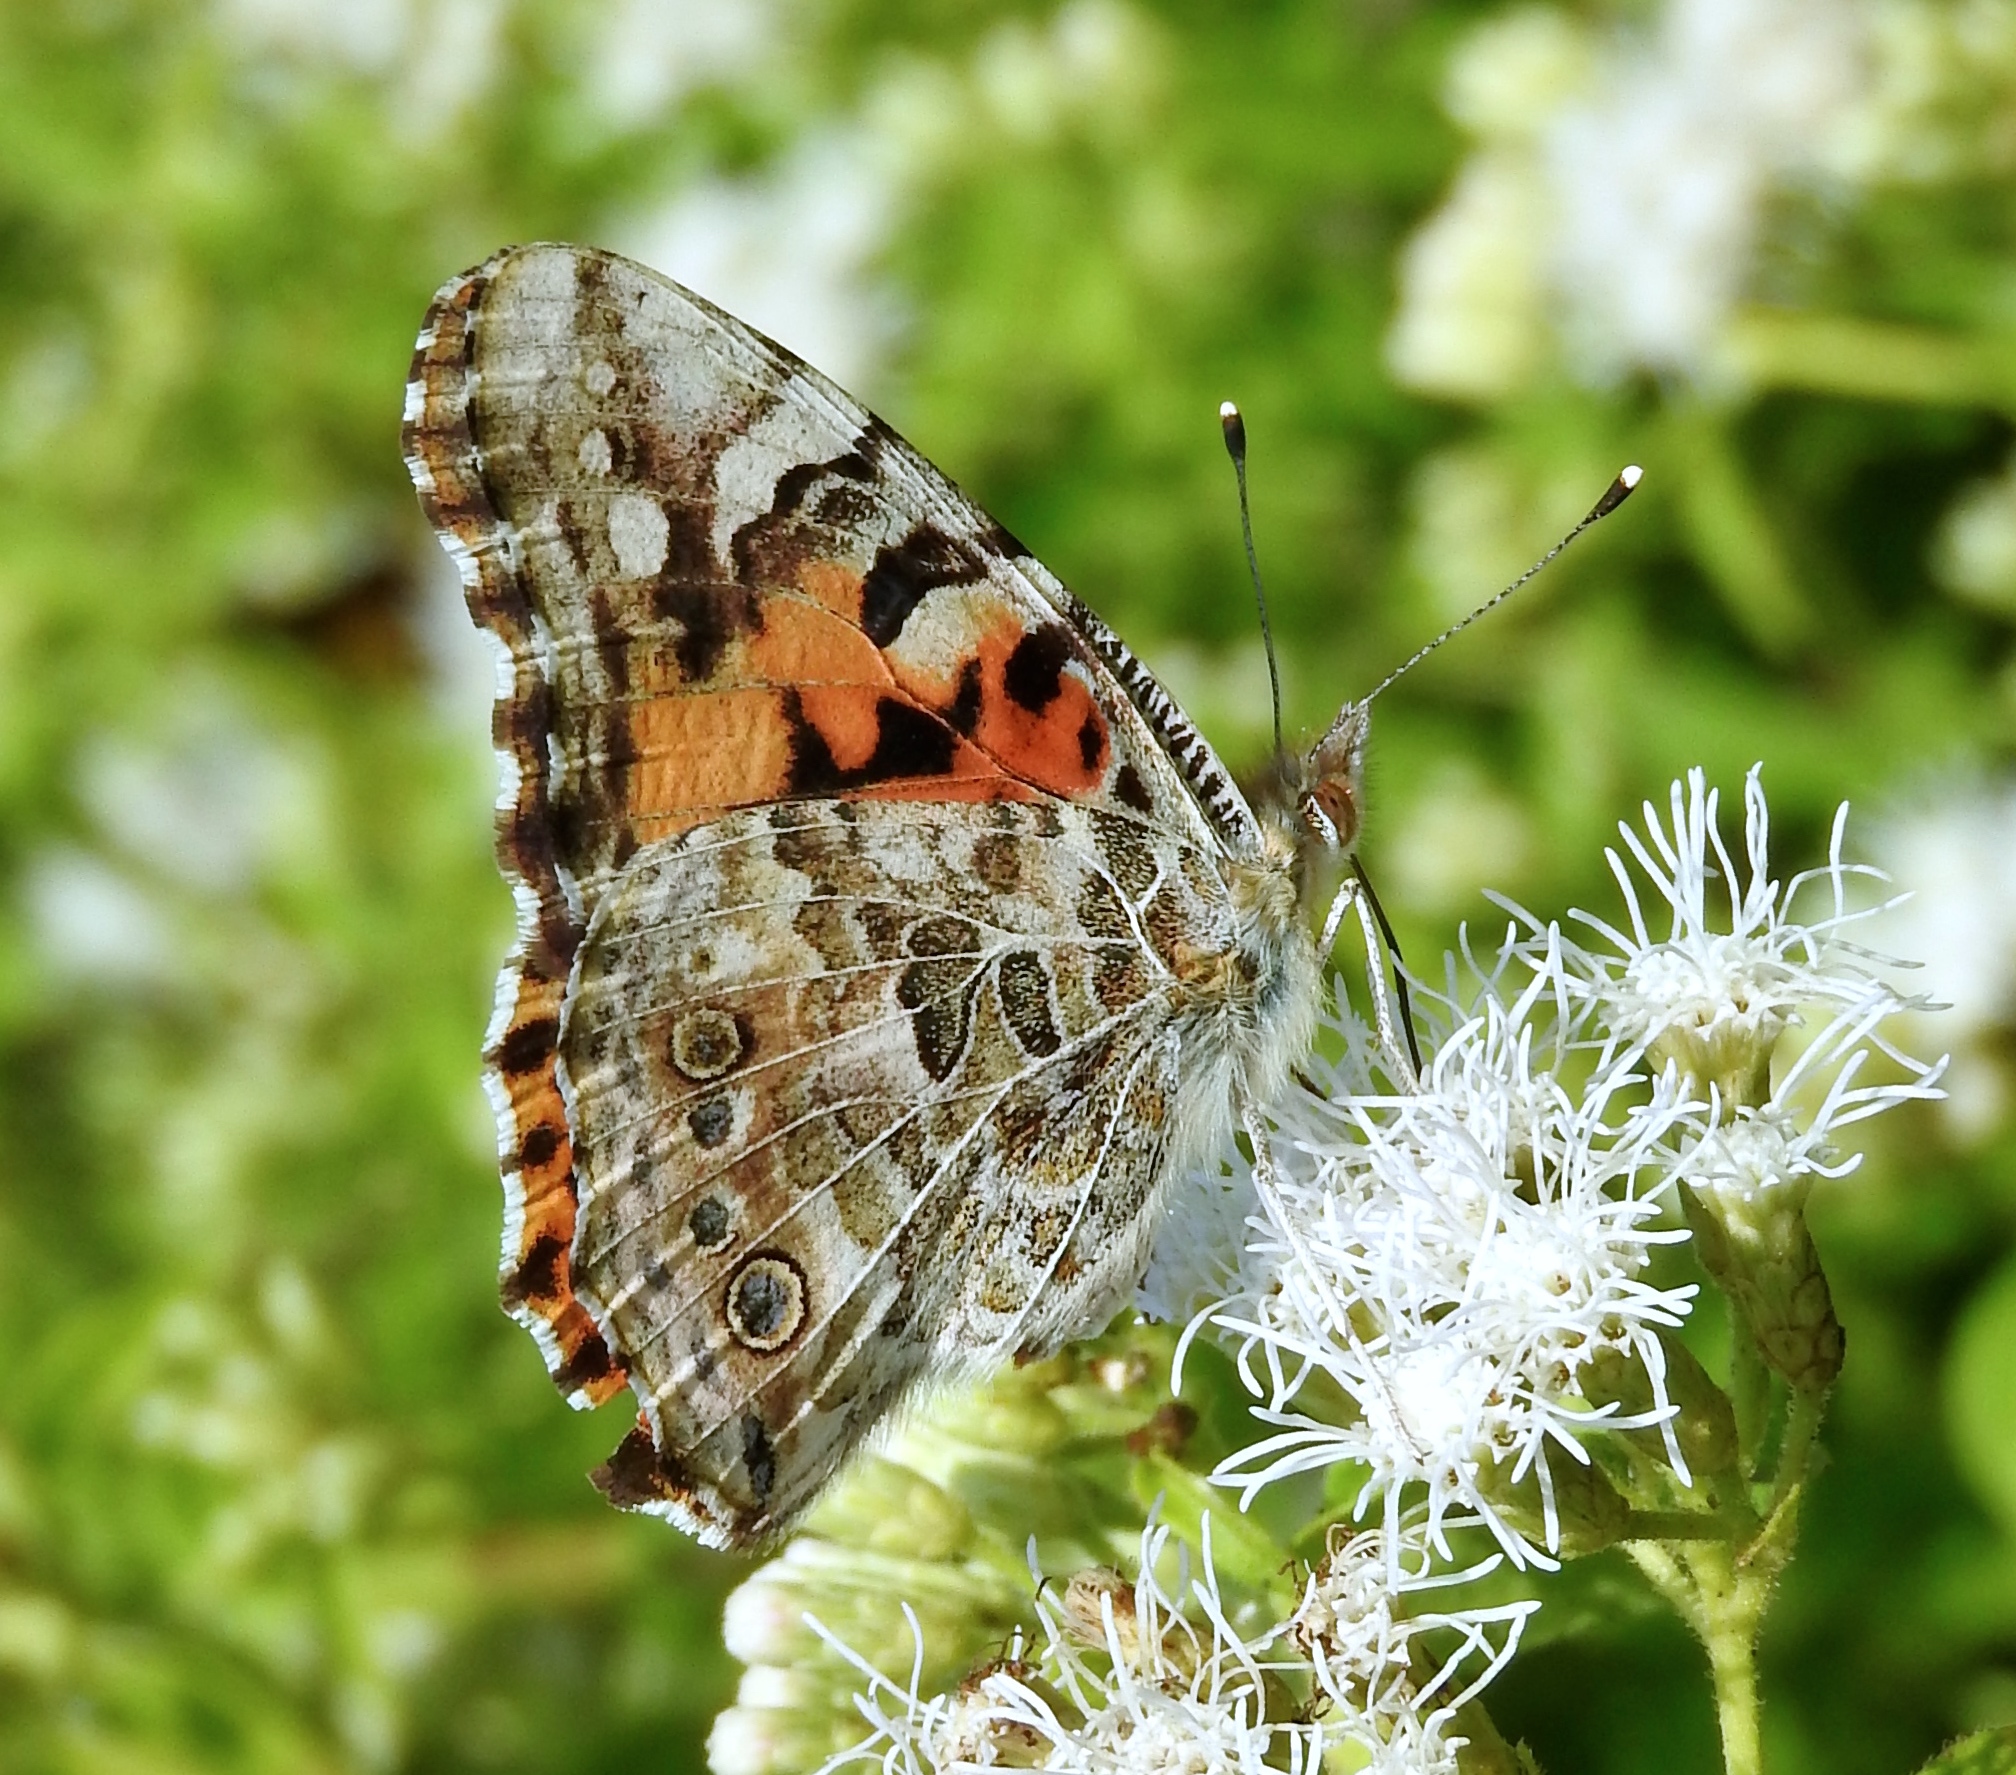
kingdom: Animalia
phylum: Arthropoda
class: Insecta
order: Lepidoptera
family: Nymphalidae
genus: Vanessa
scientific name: Vanessa cardui
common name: Painted lady
